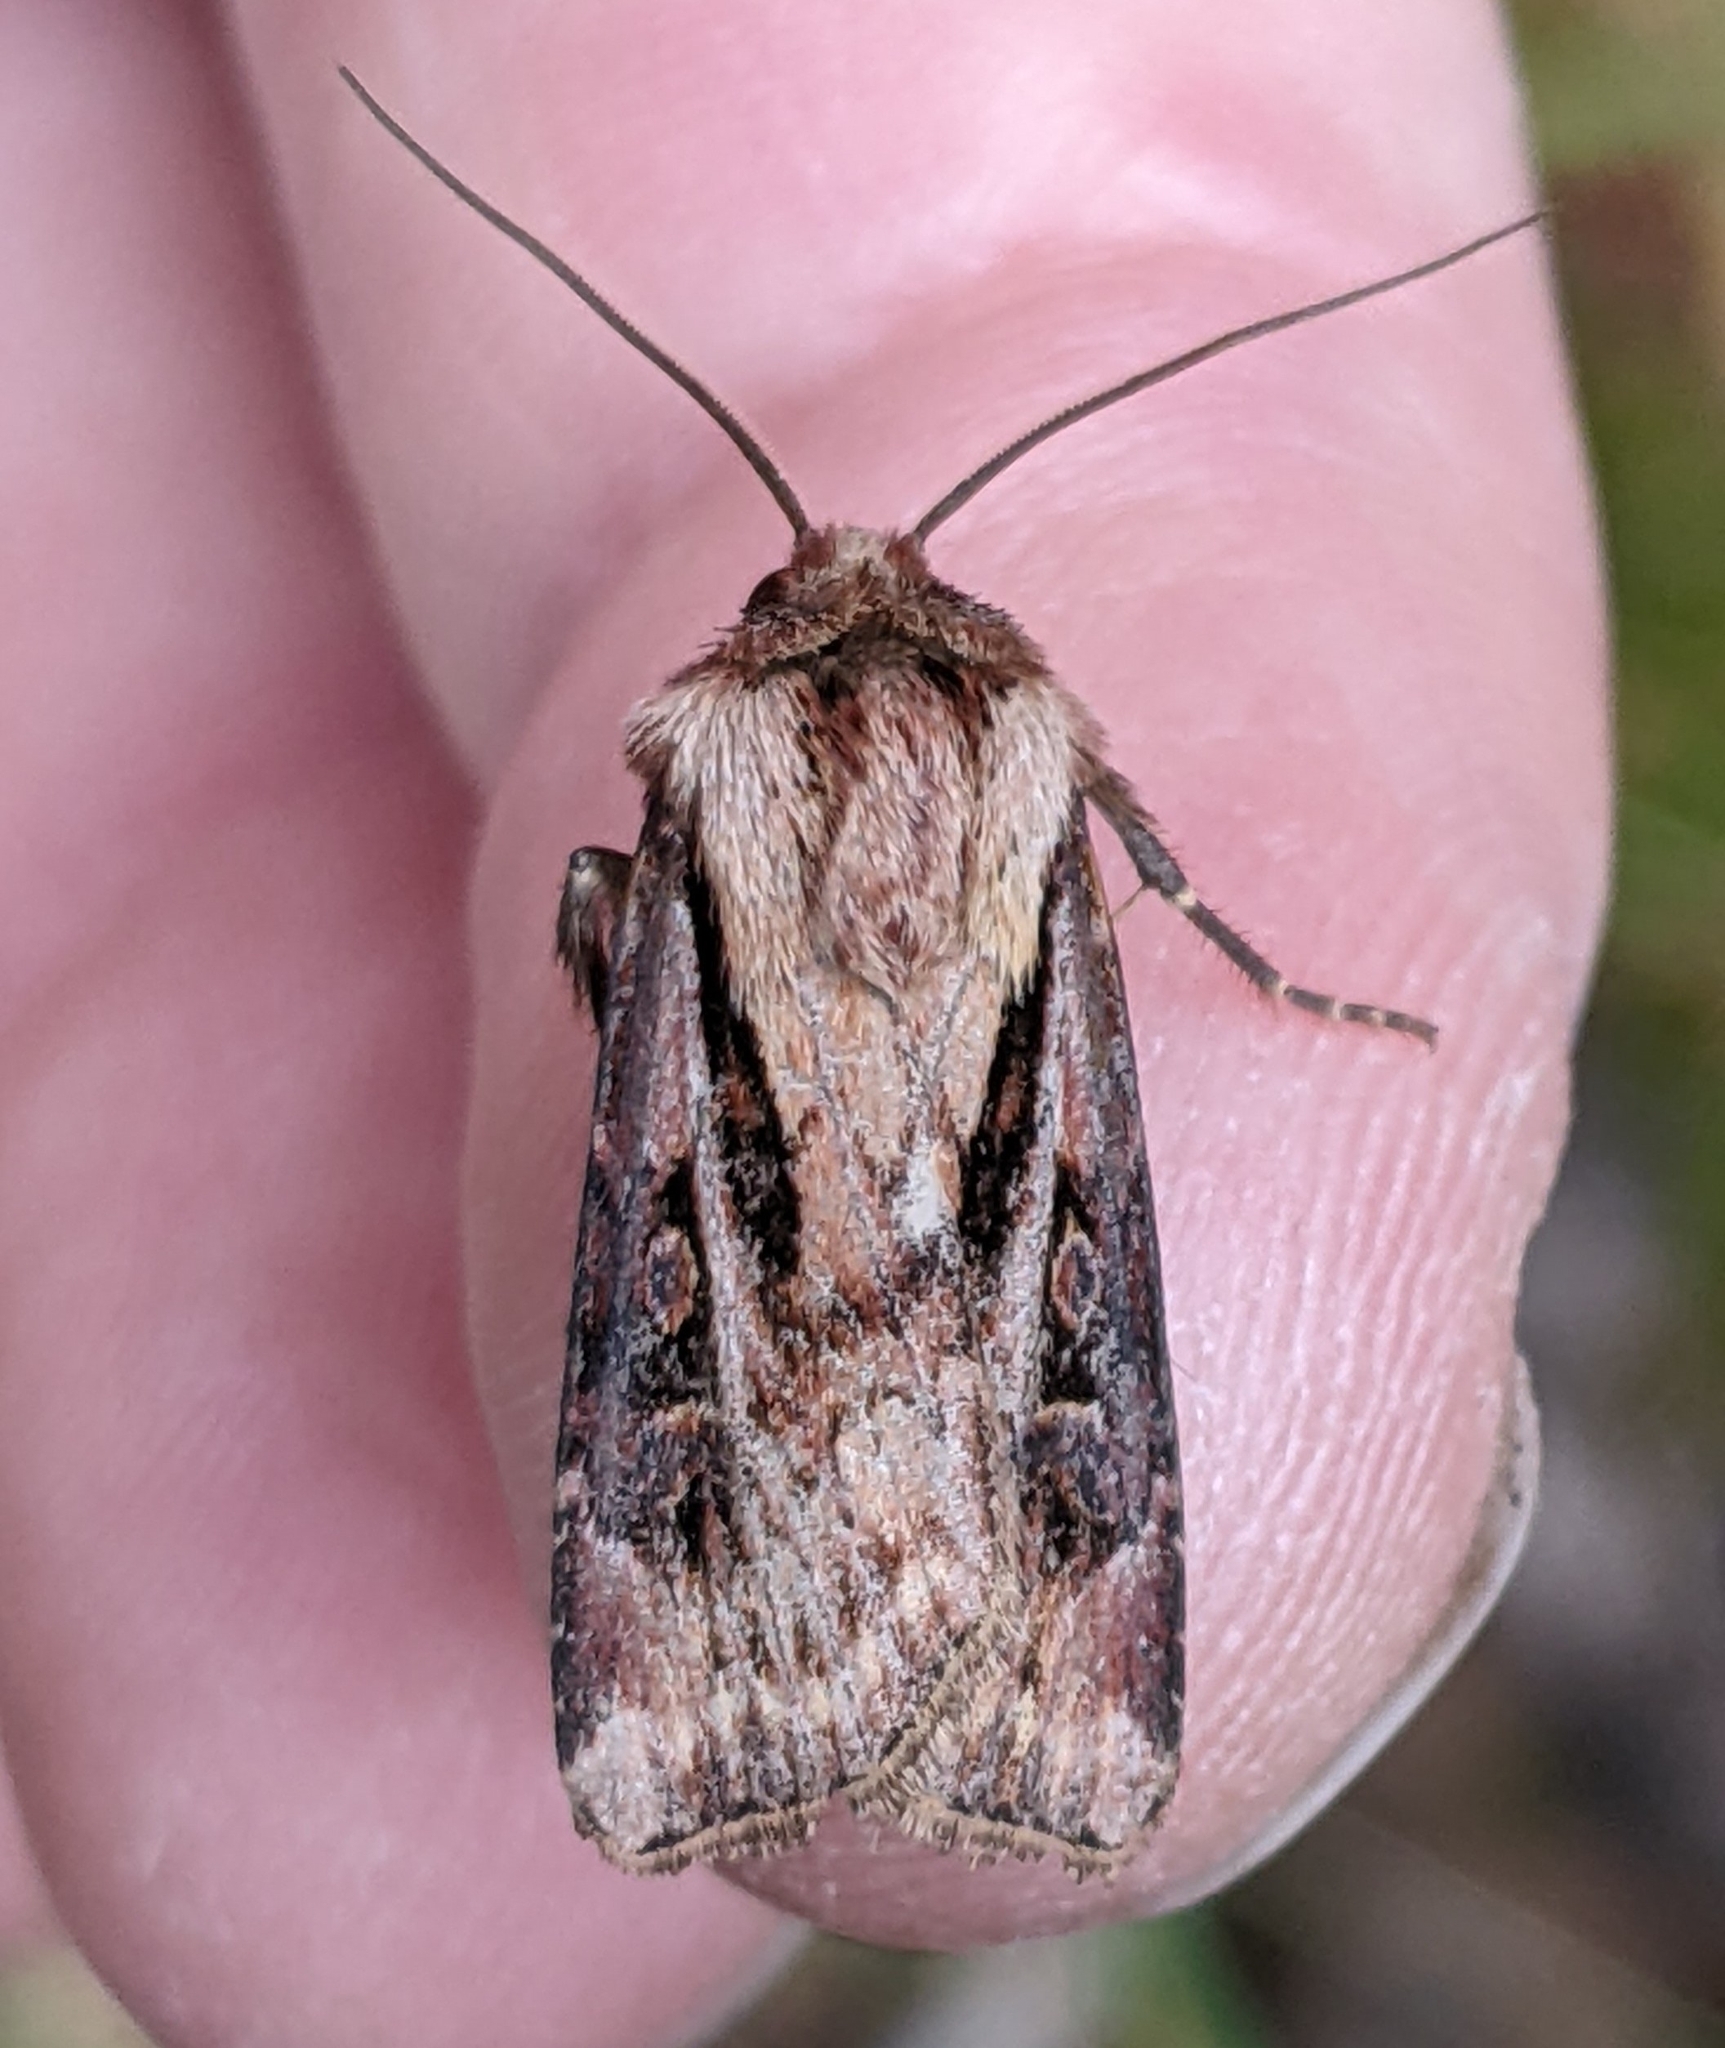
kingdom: Animalia
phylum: Arthropoda
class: Insecta
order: Lepidoptera
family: Noctuidae
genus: Agrotis
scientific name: Agrotis vancouverensis
